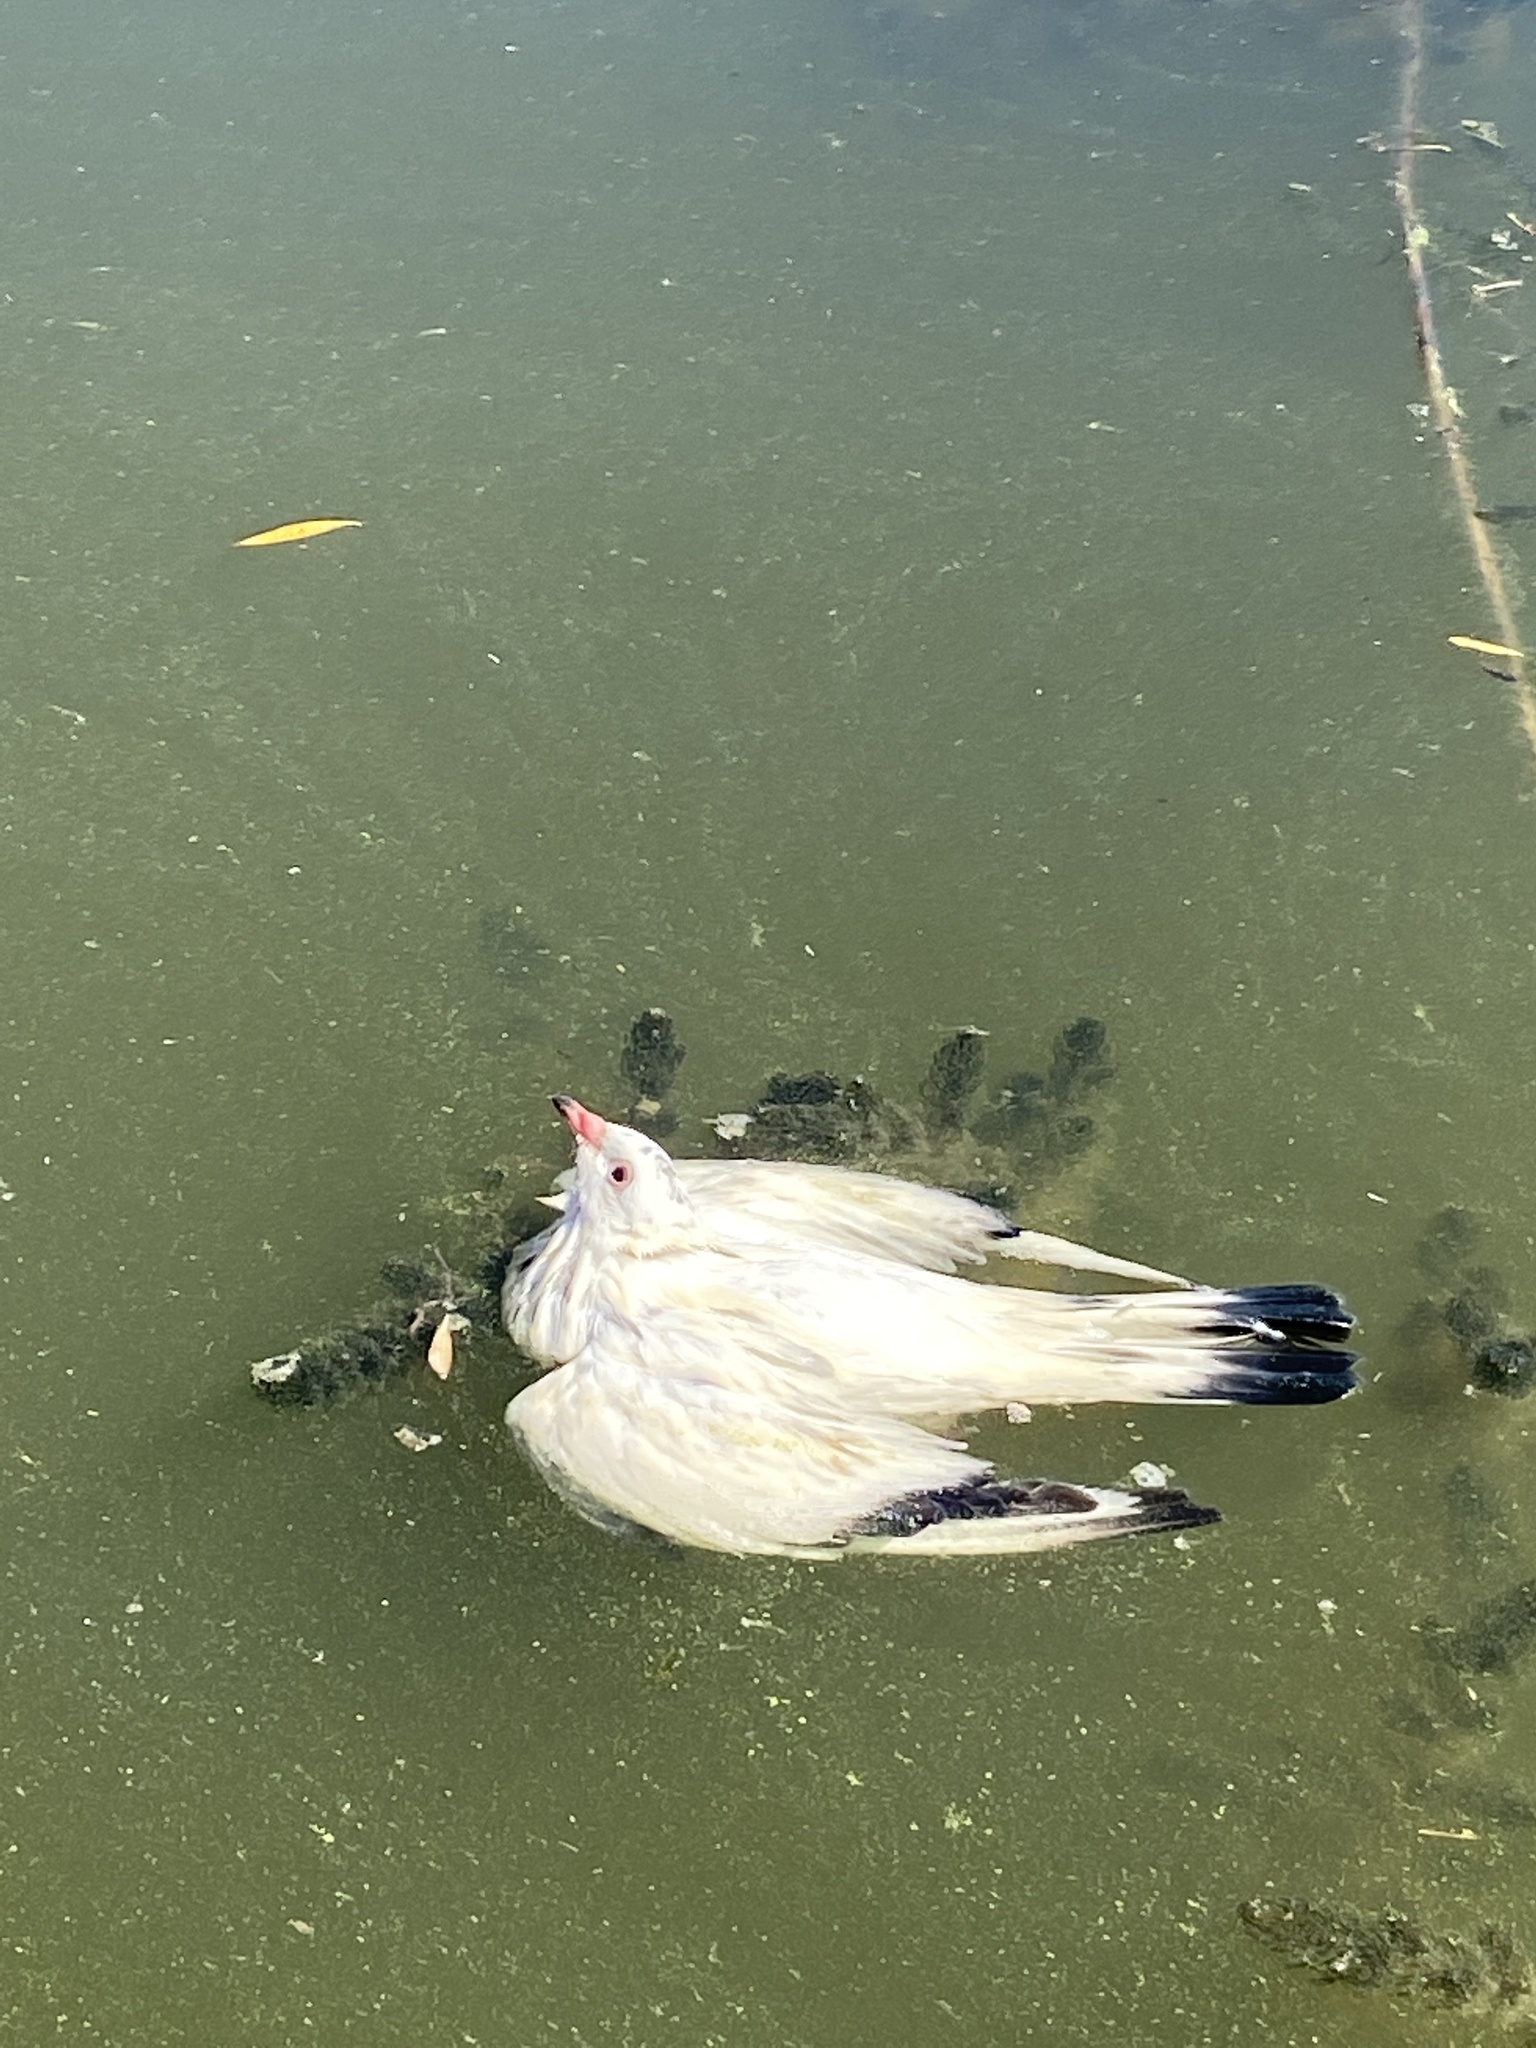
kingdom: Animalia
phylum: Chordata
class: Aves
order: Columbiformes
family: Columbidae
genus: Columba
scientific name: Columba livia
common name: Rock pigeon
